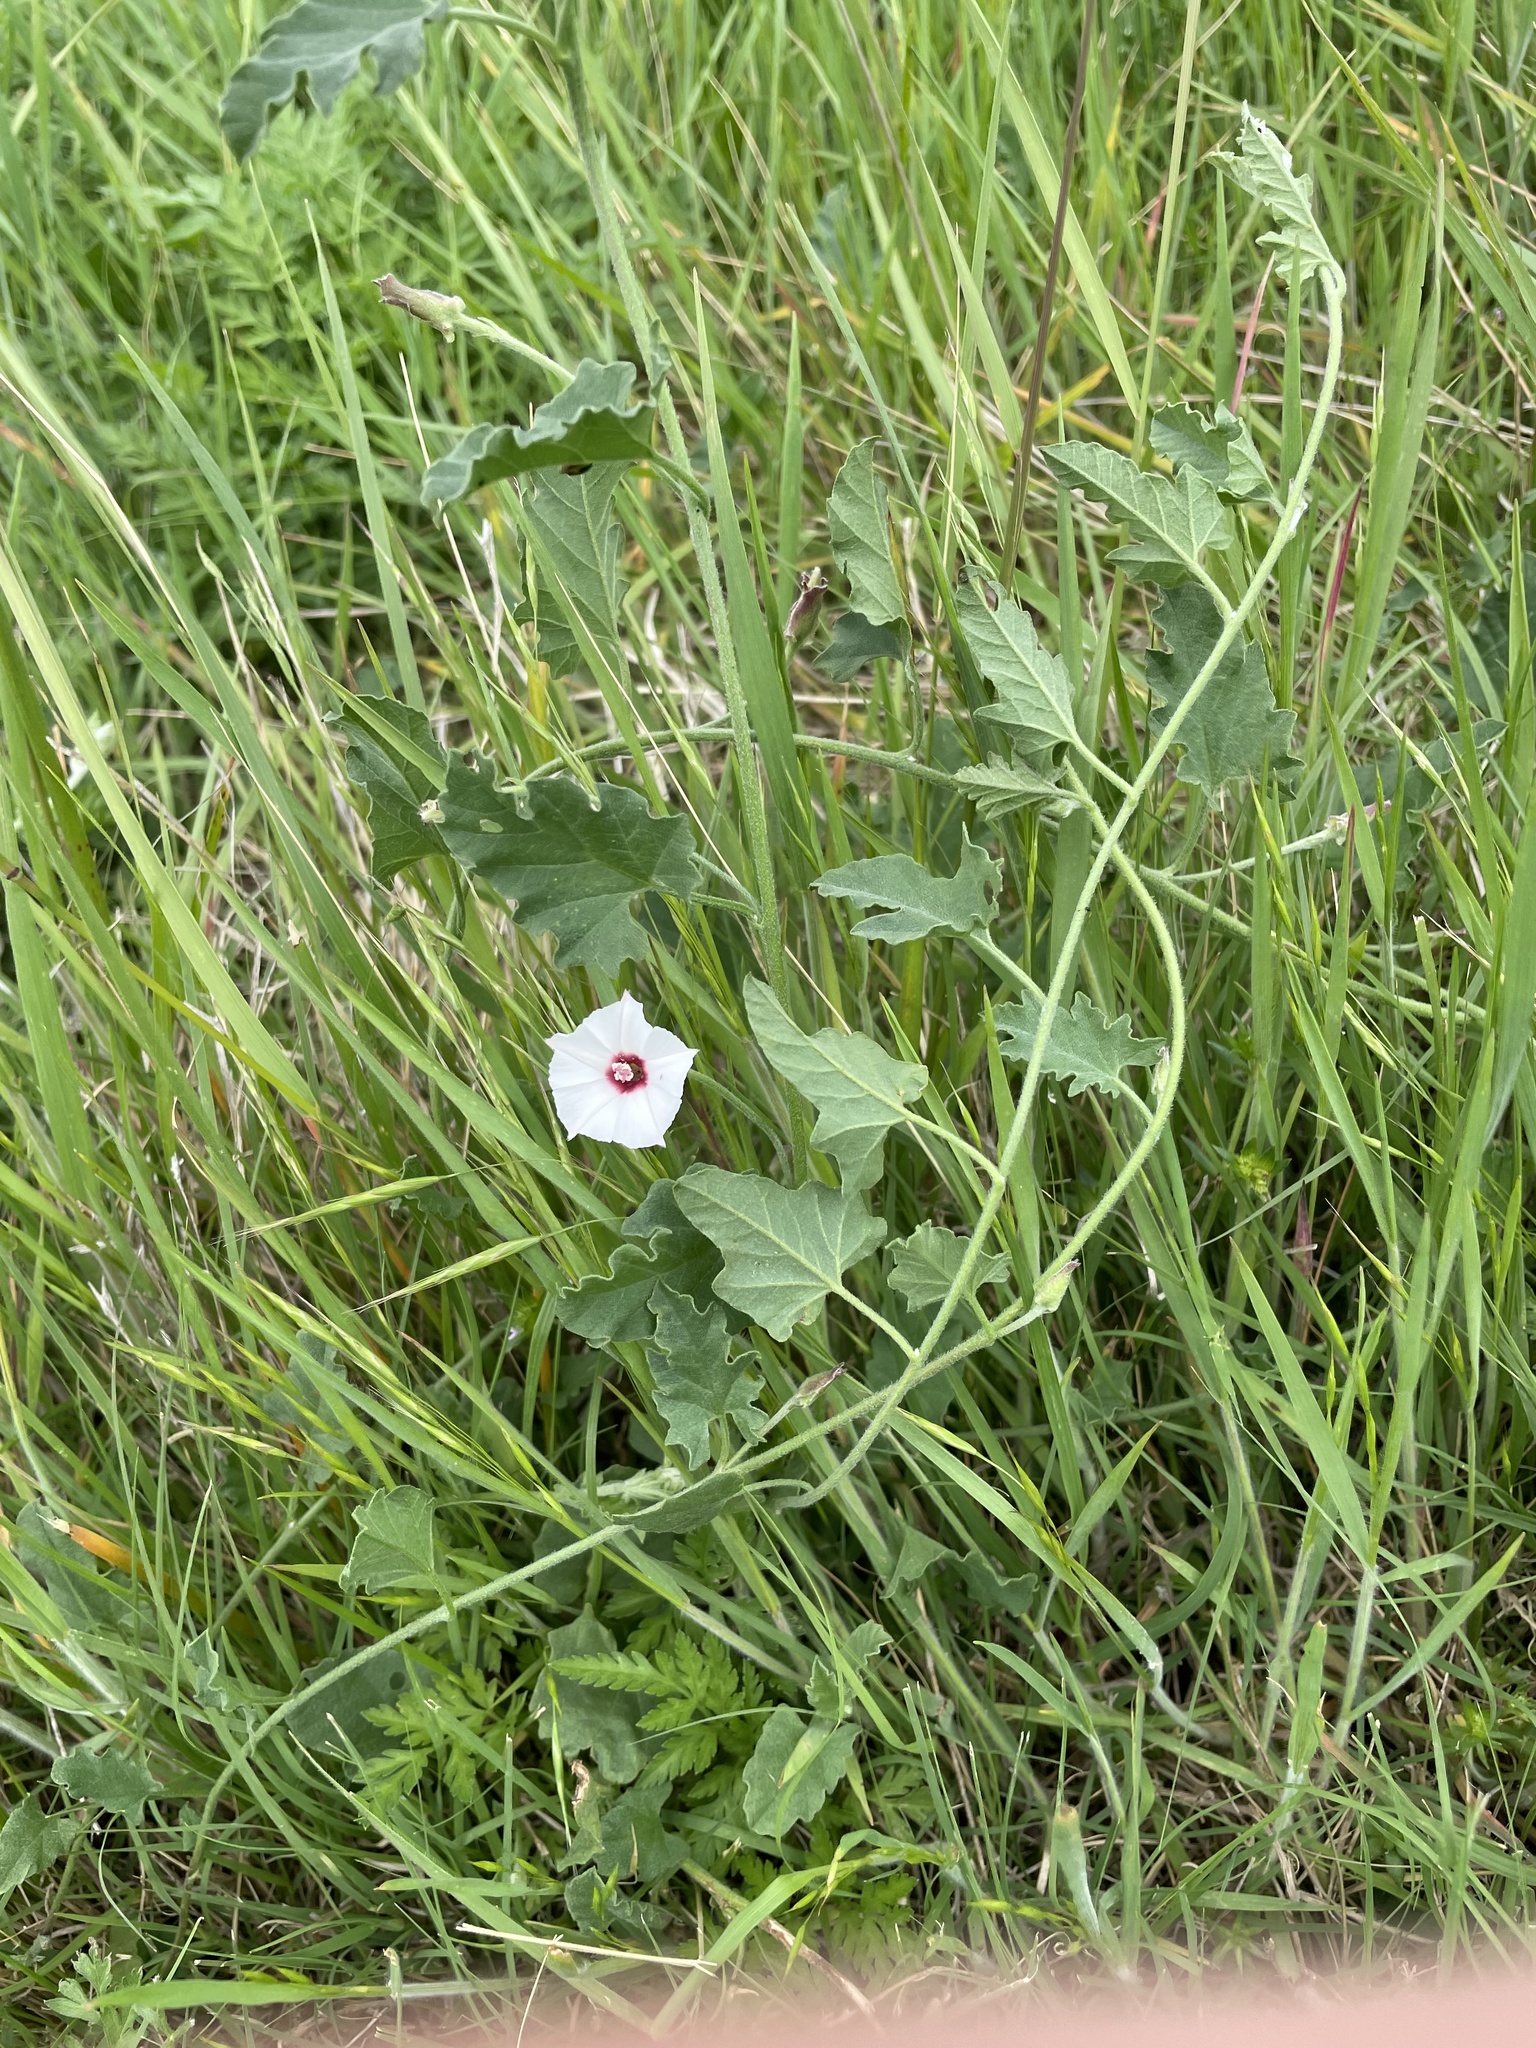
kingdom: Plantae
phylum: Tracheophyta
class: Magnoliopsida
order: Solanales
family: Convolvulaceae
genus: Convolvulus
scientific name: Convolvulus equitans
